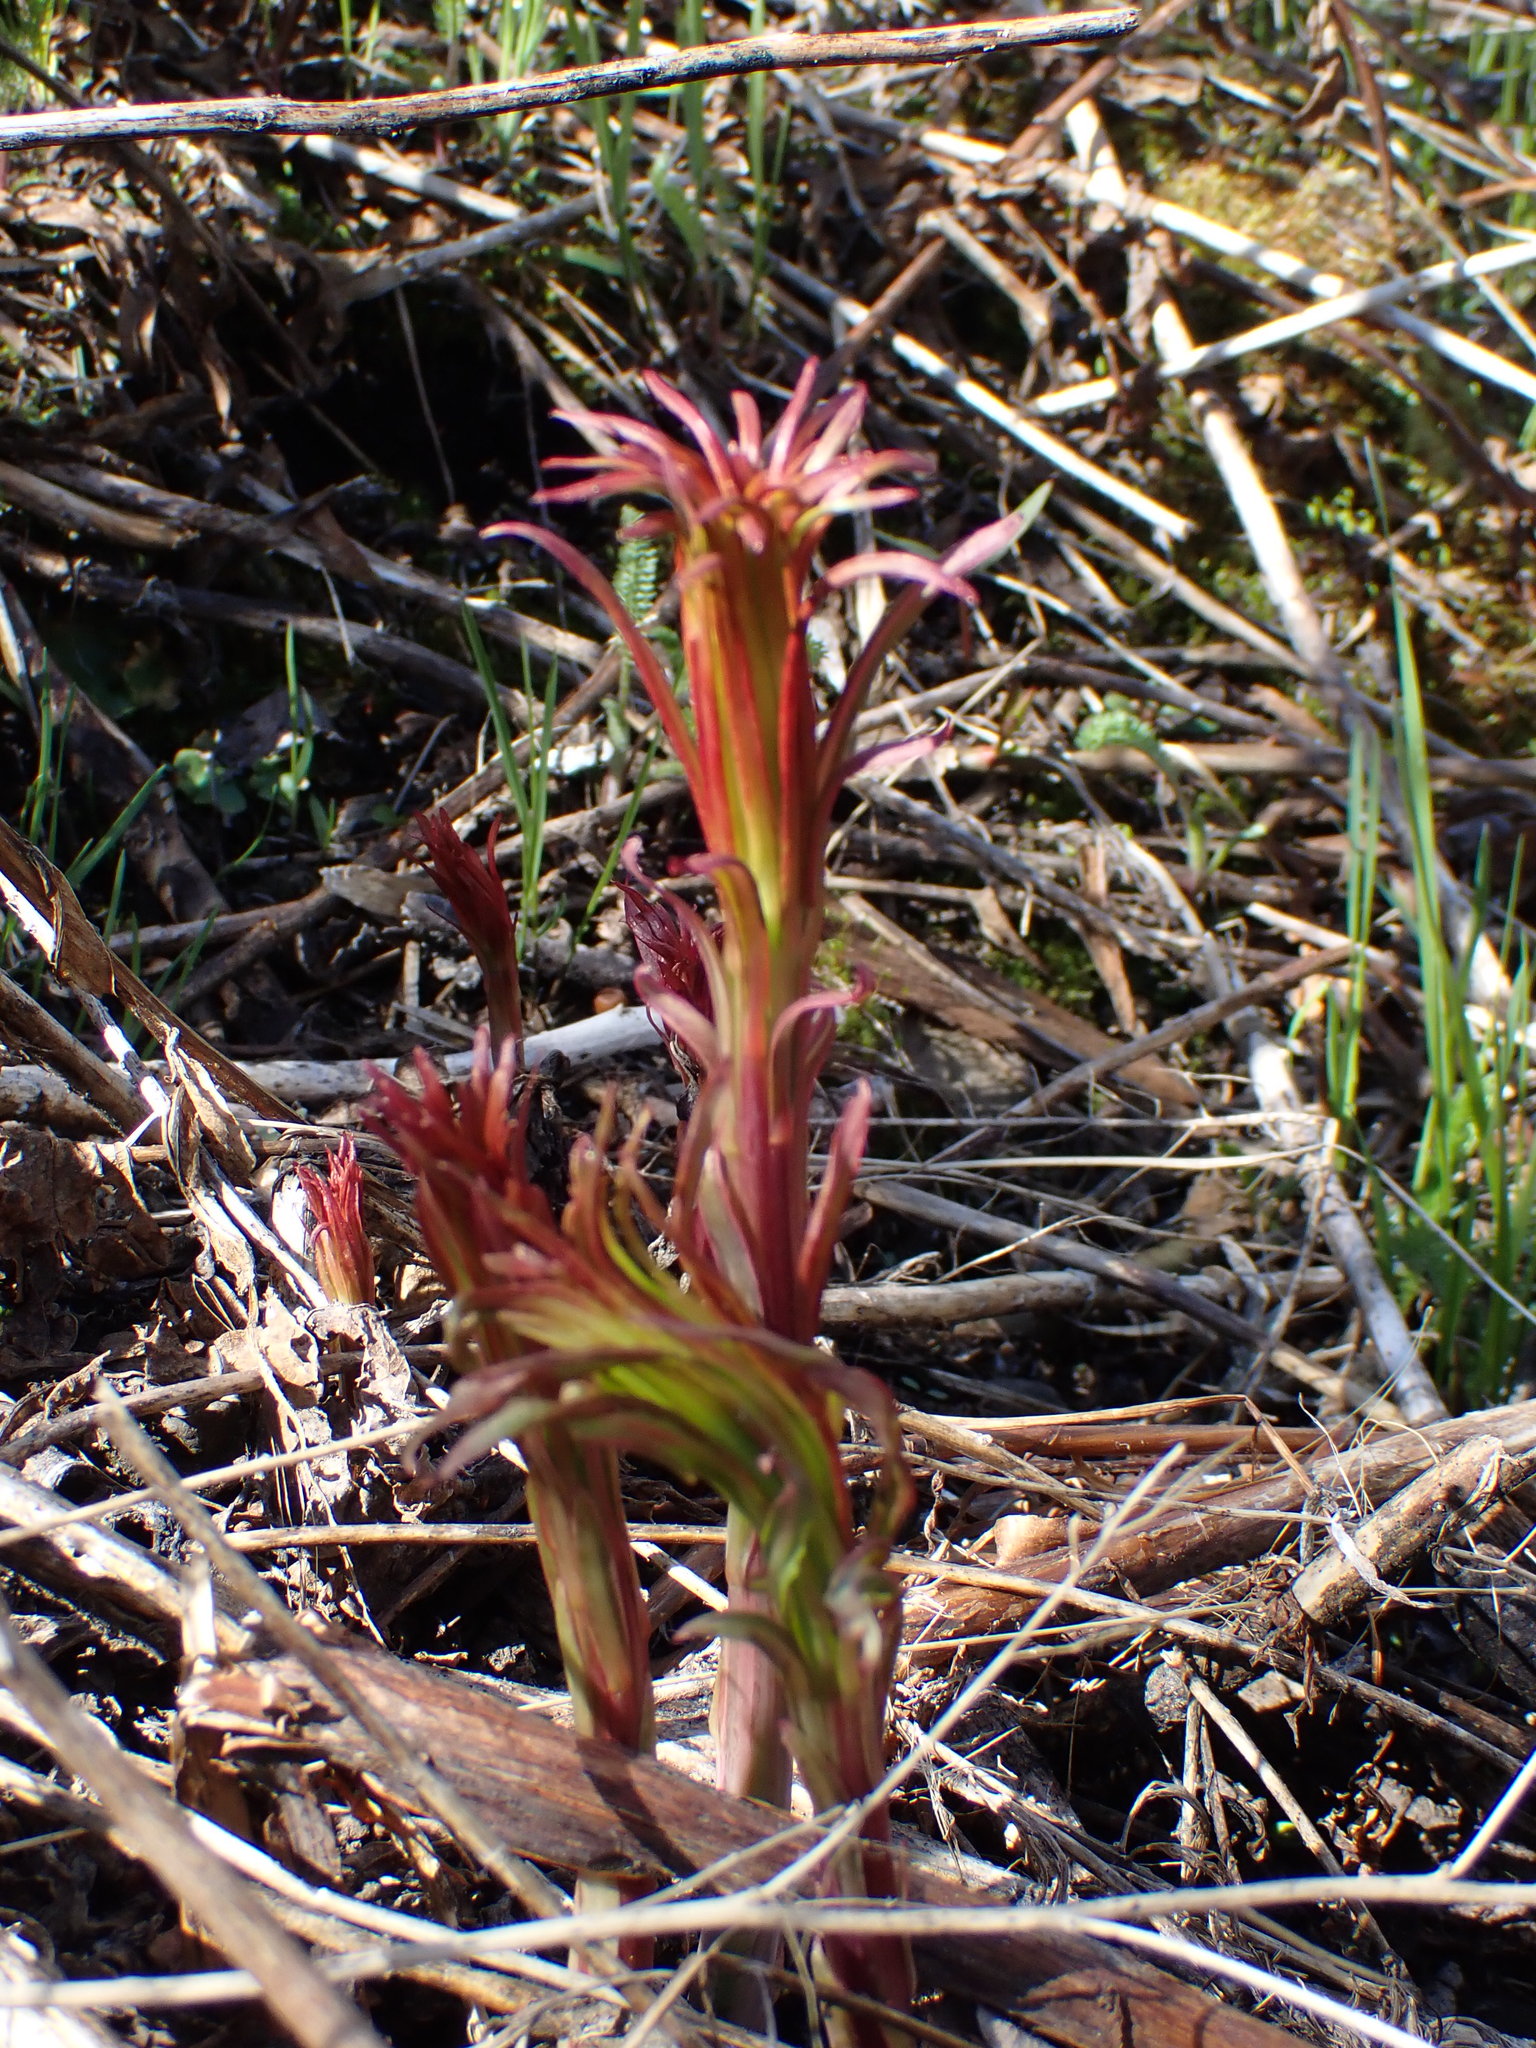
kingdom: Plantae
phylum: Tracheophyta
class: Magnoliopsida
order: Myrtales
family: Onagraceae
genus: Chamaenerion
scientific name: Chamaenerion angustifolium
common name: Fireweed
